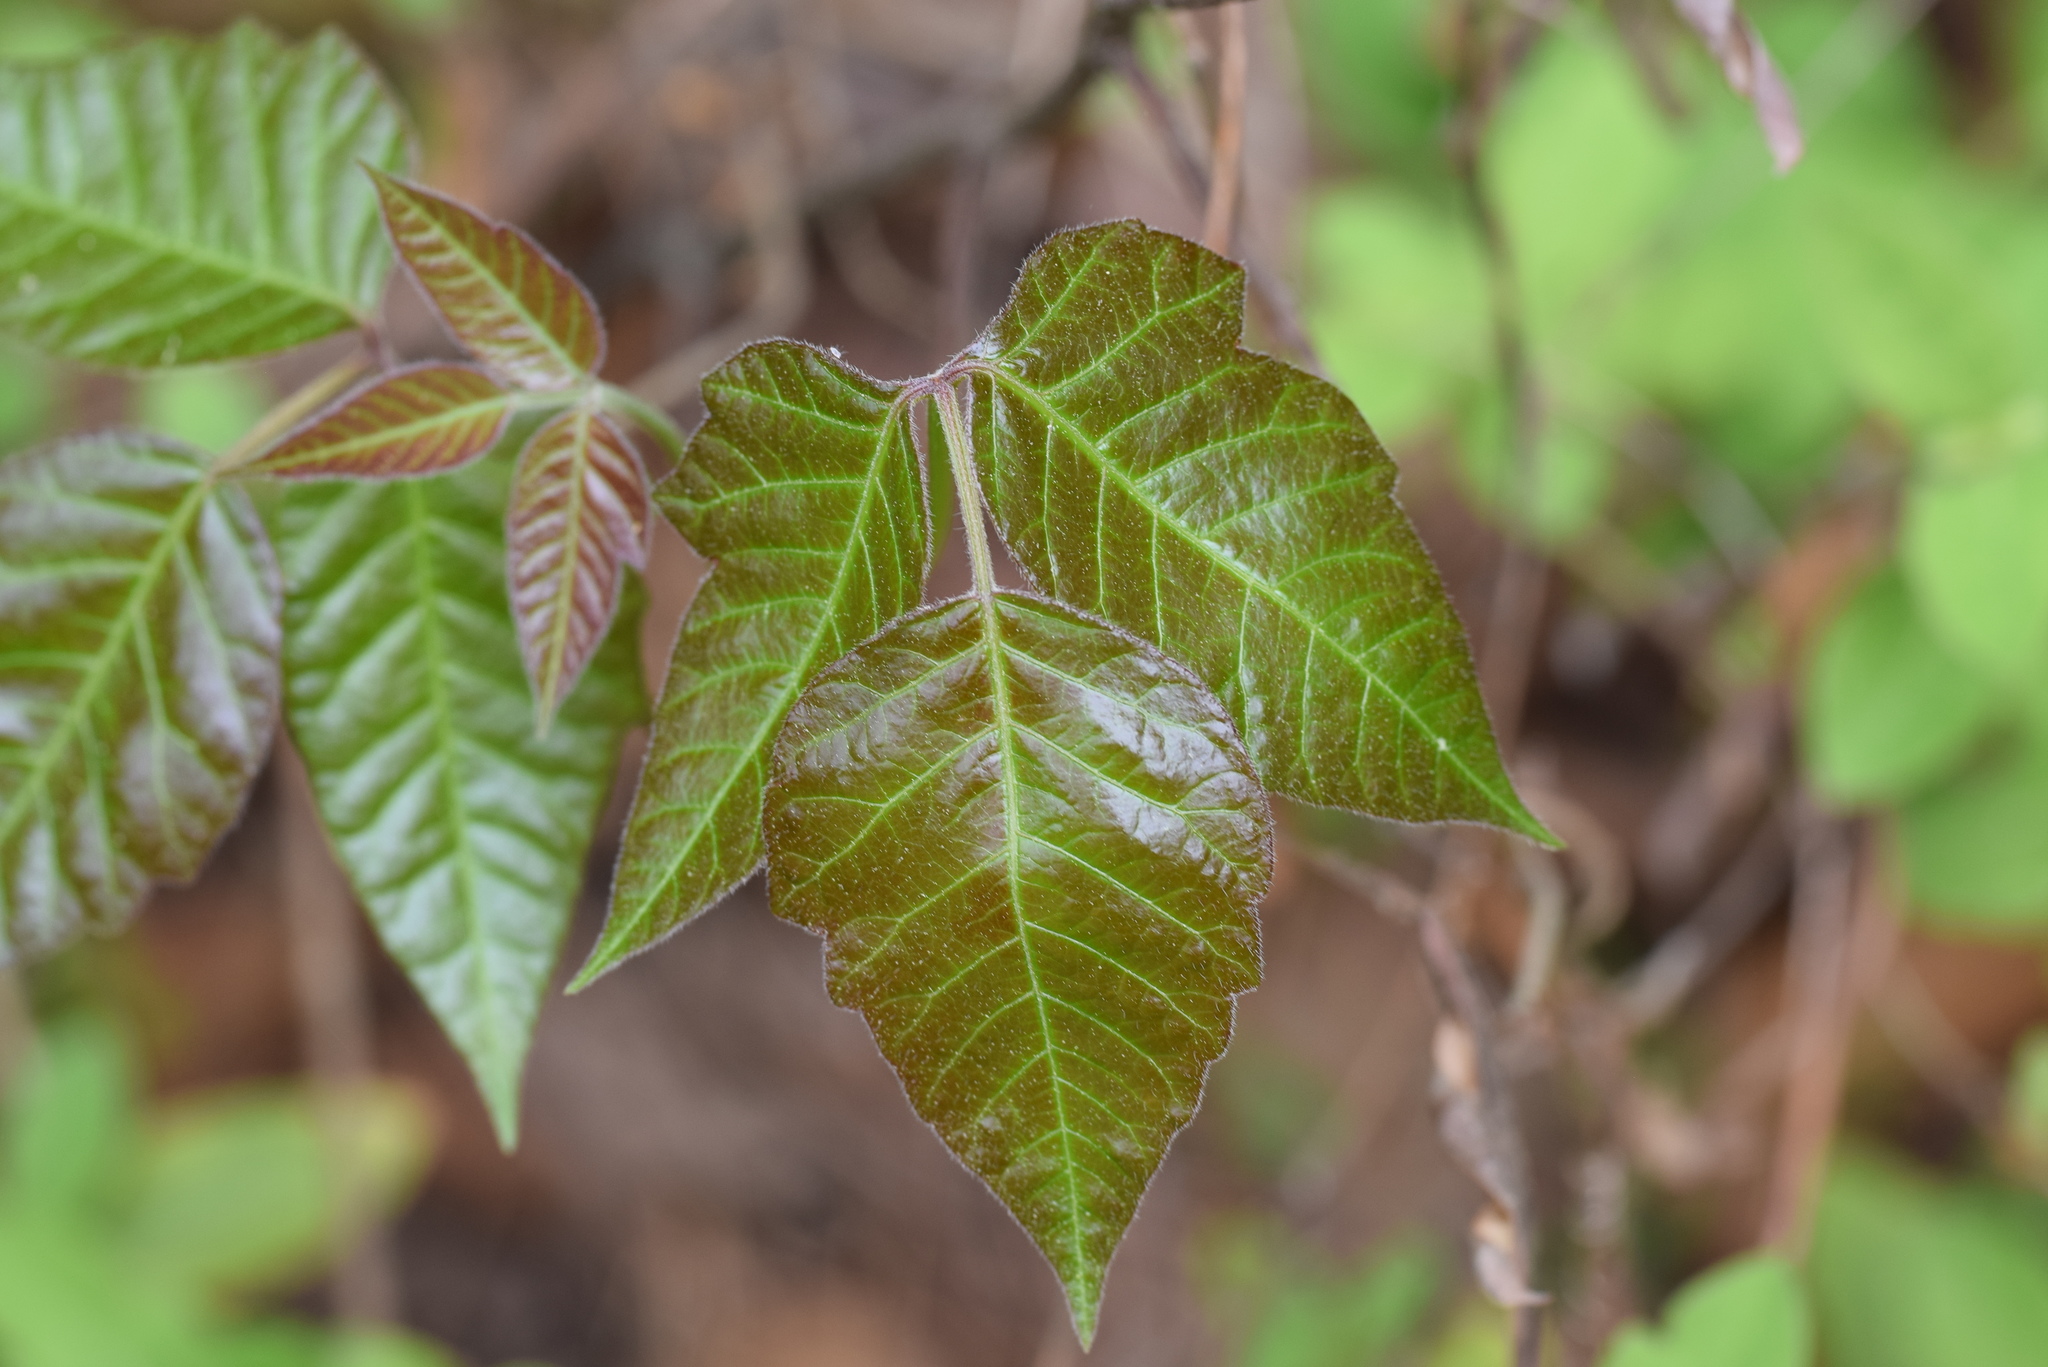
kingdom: Plantae
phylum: Tracheophyta
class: Magnoliopsida
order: Sapindales
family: Anacardiaceae
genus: Toxicodendron
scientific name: Toxicodendron radicans
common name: Poison ivy
